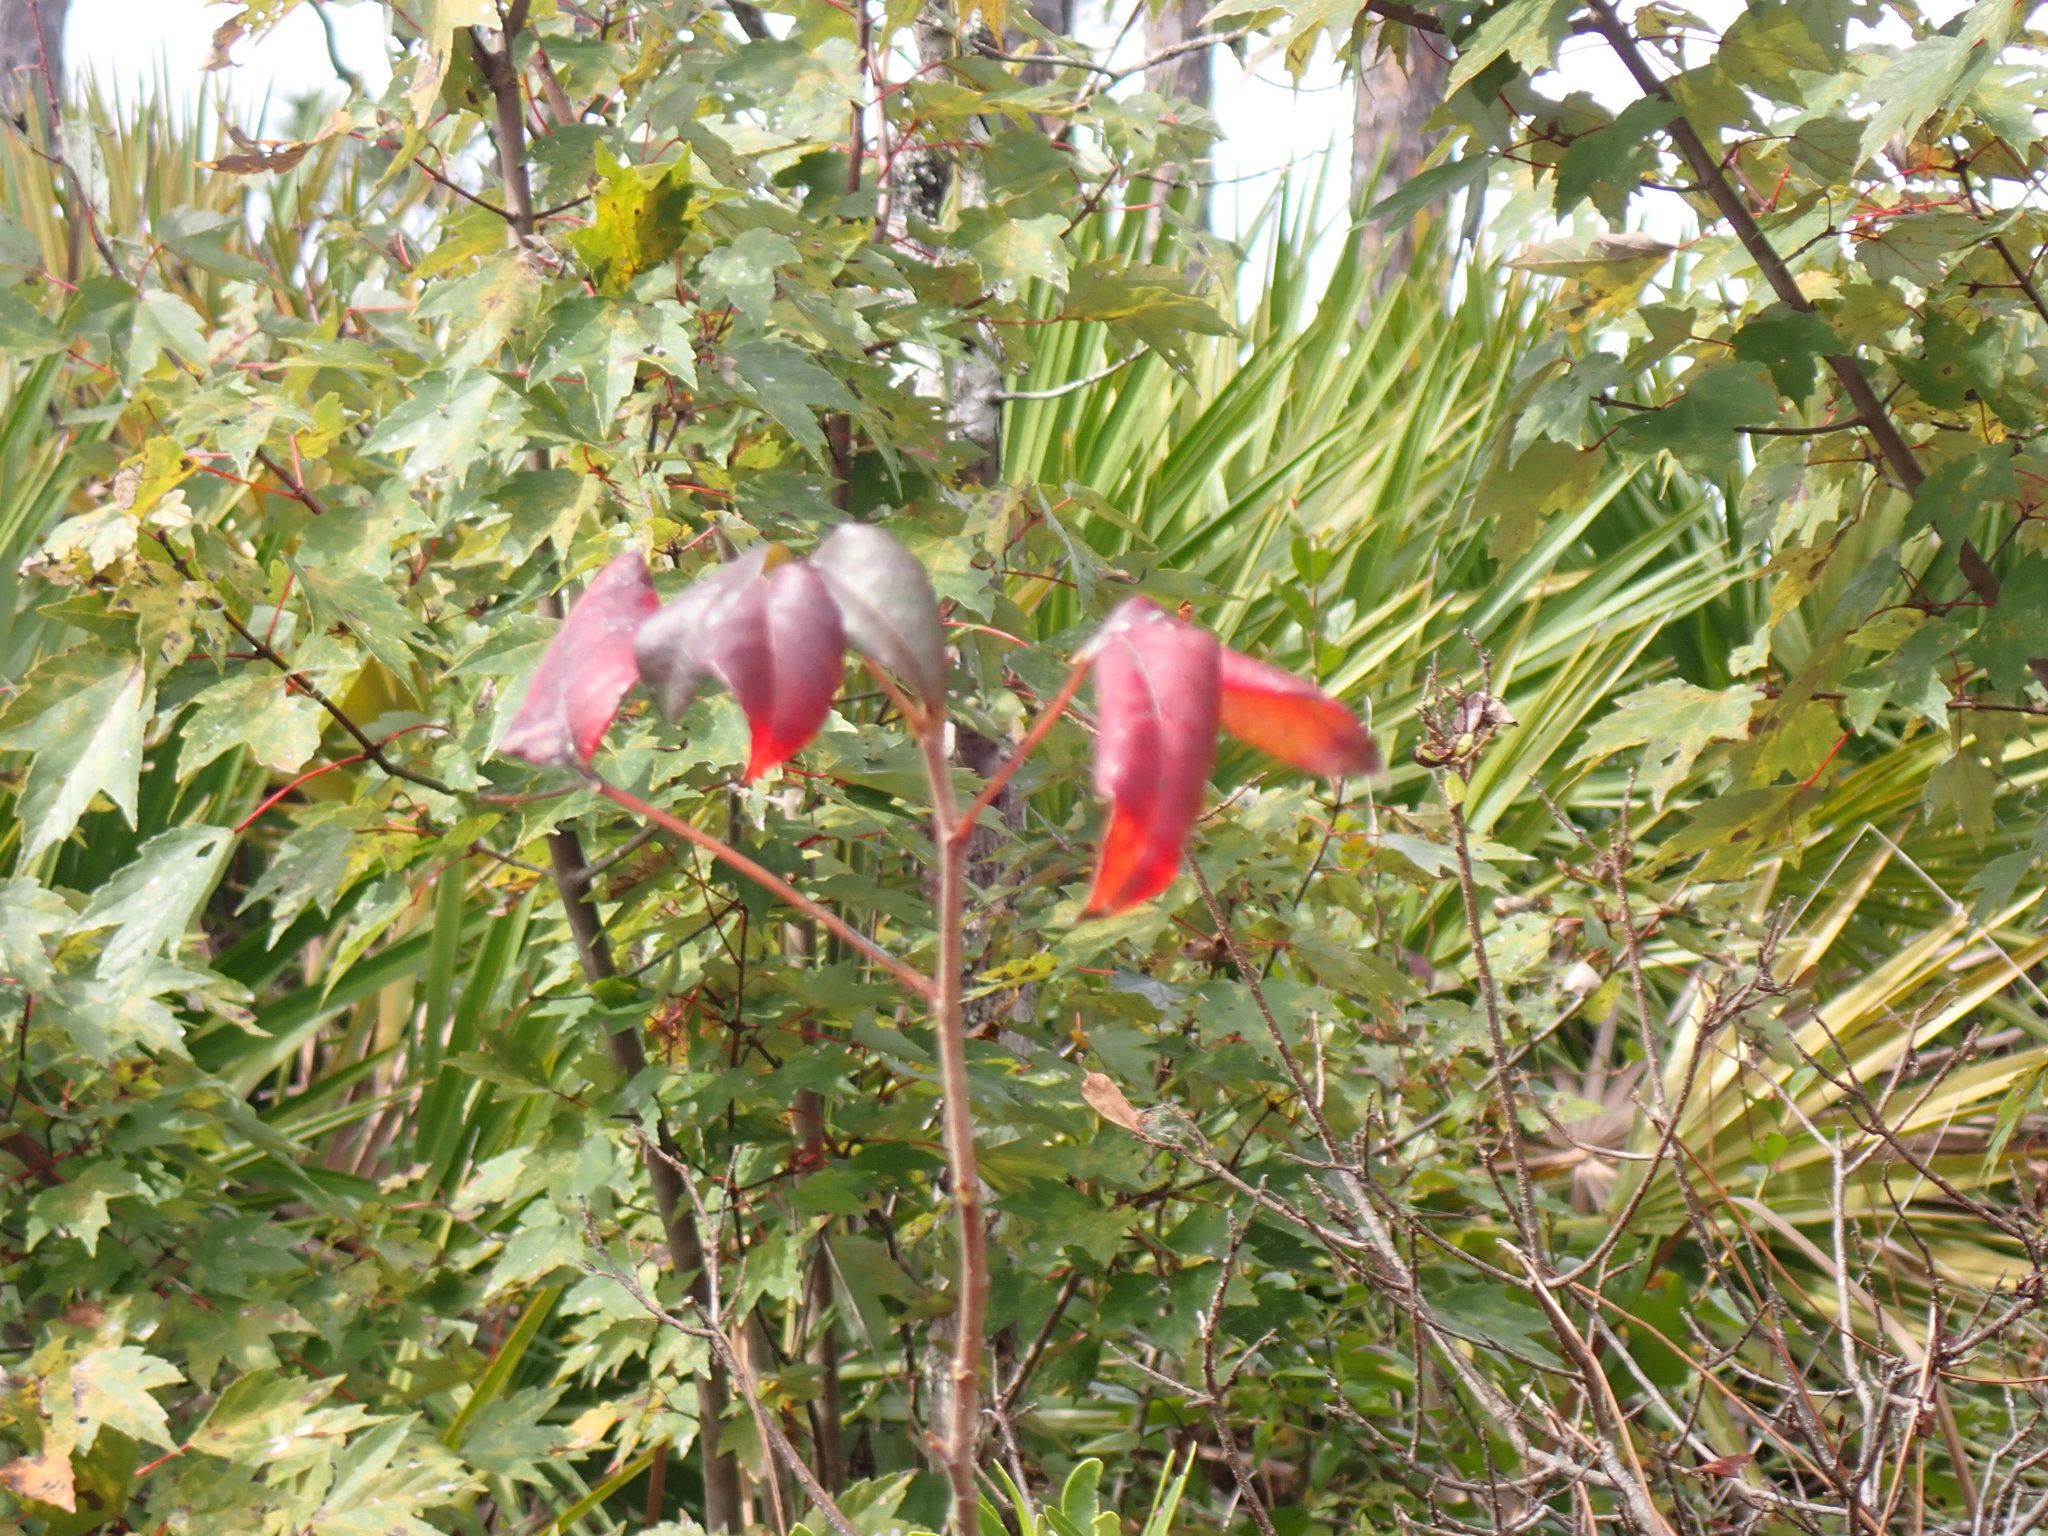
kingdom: Plantae
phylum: Tracheophyta
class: Magnoliopsida
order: Sapindales
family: Anacardiaceae
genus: Toxicodendron
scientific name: Toxicodendron radicans
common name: Poison ivy
